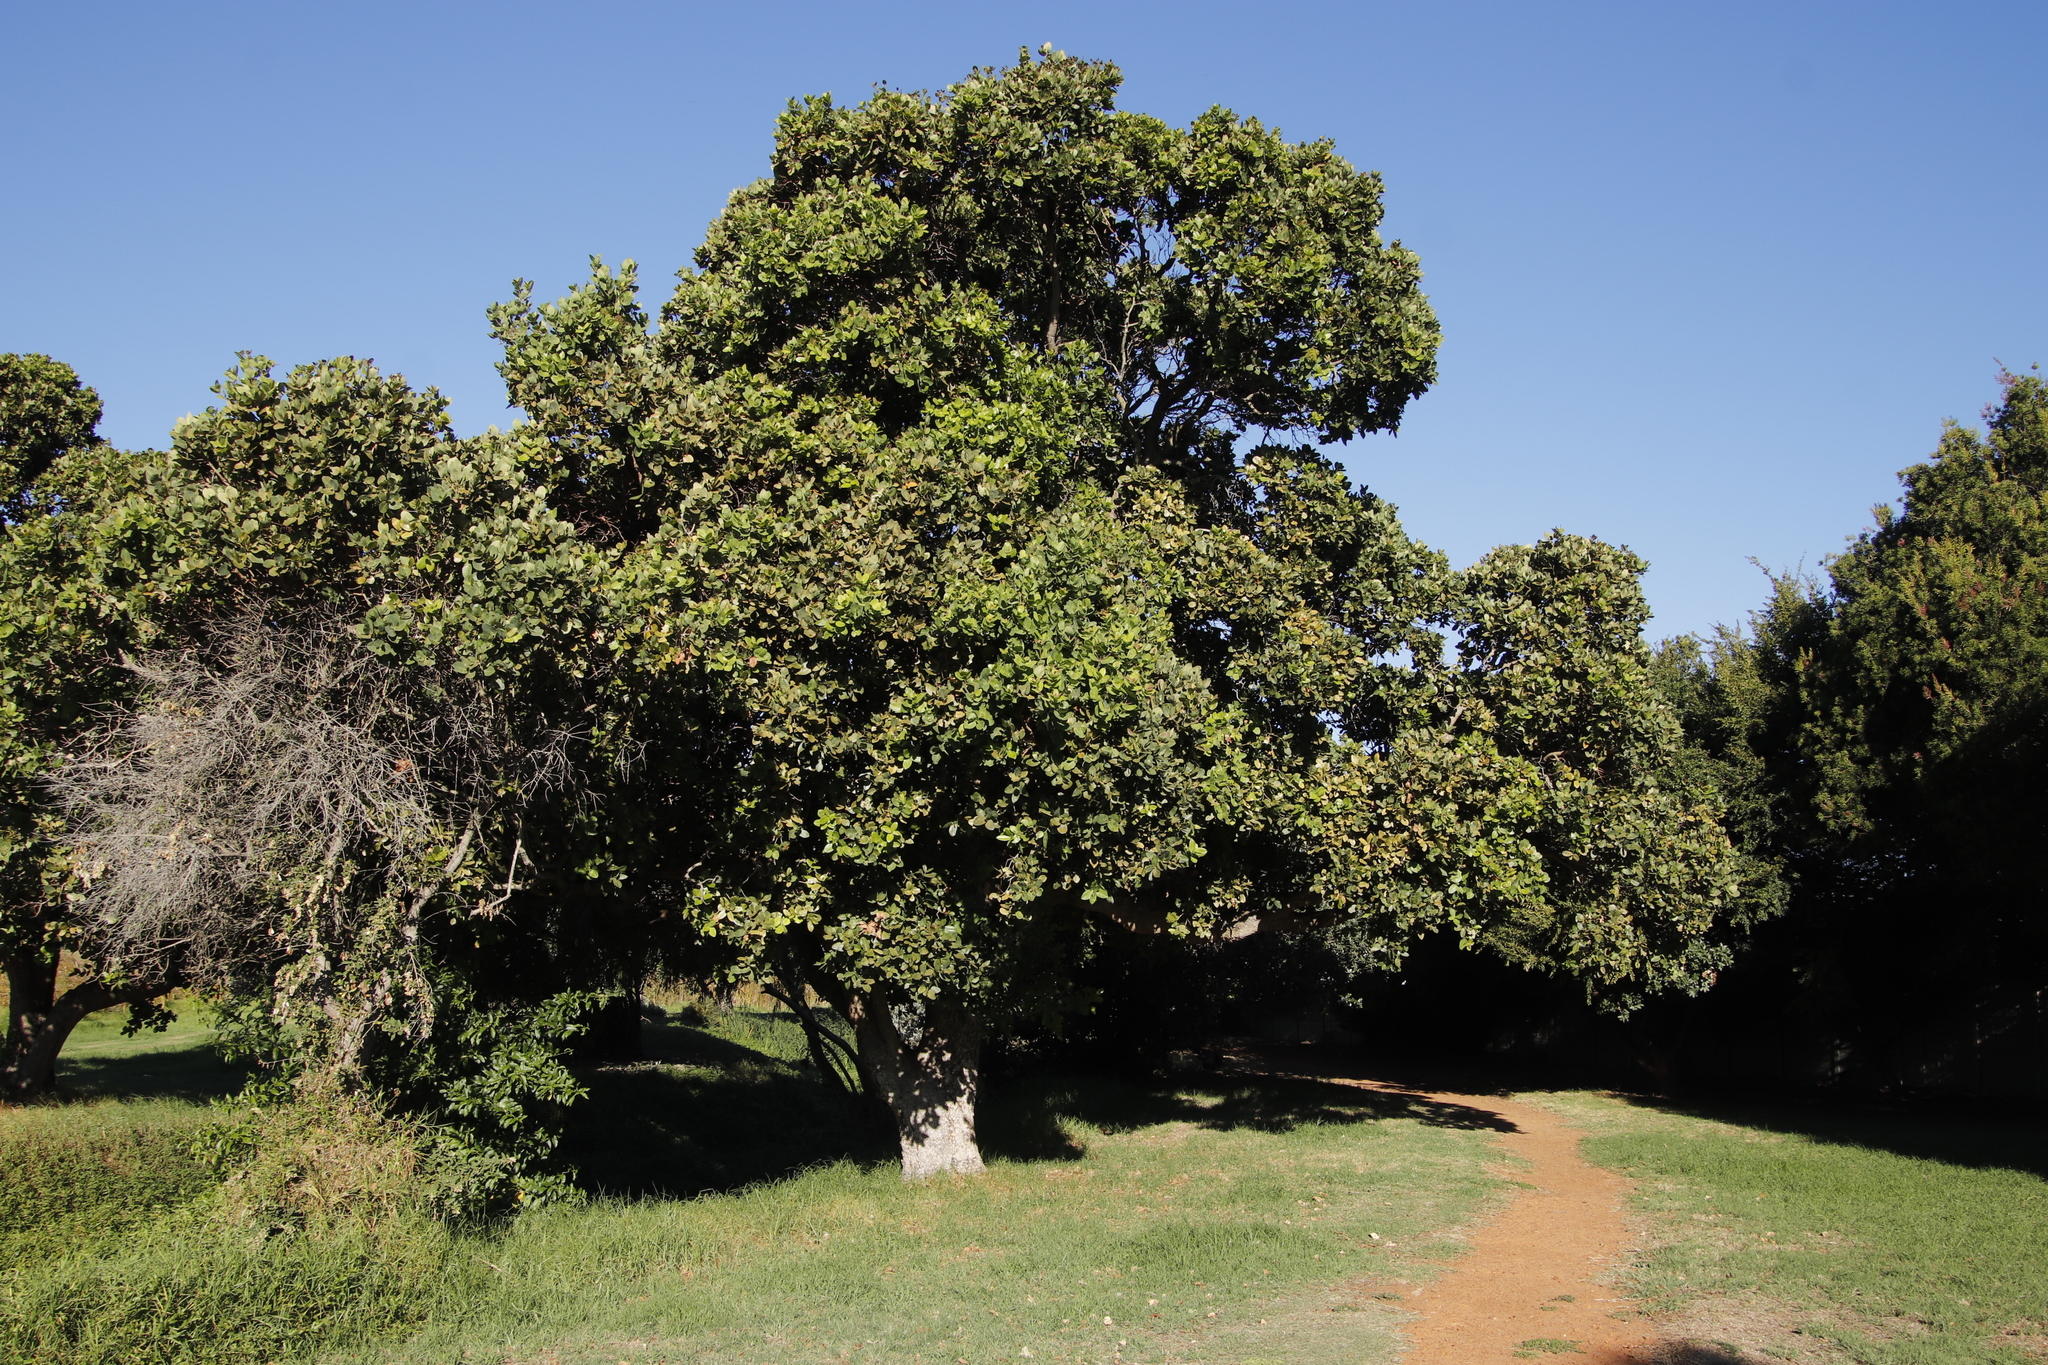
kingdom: Plantae
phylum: Tracheophyta
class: Magnoliopsida
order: Myrtales
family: Myrtaceae
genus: Syzygium
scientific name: Syzygium cordatum
